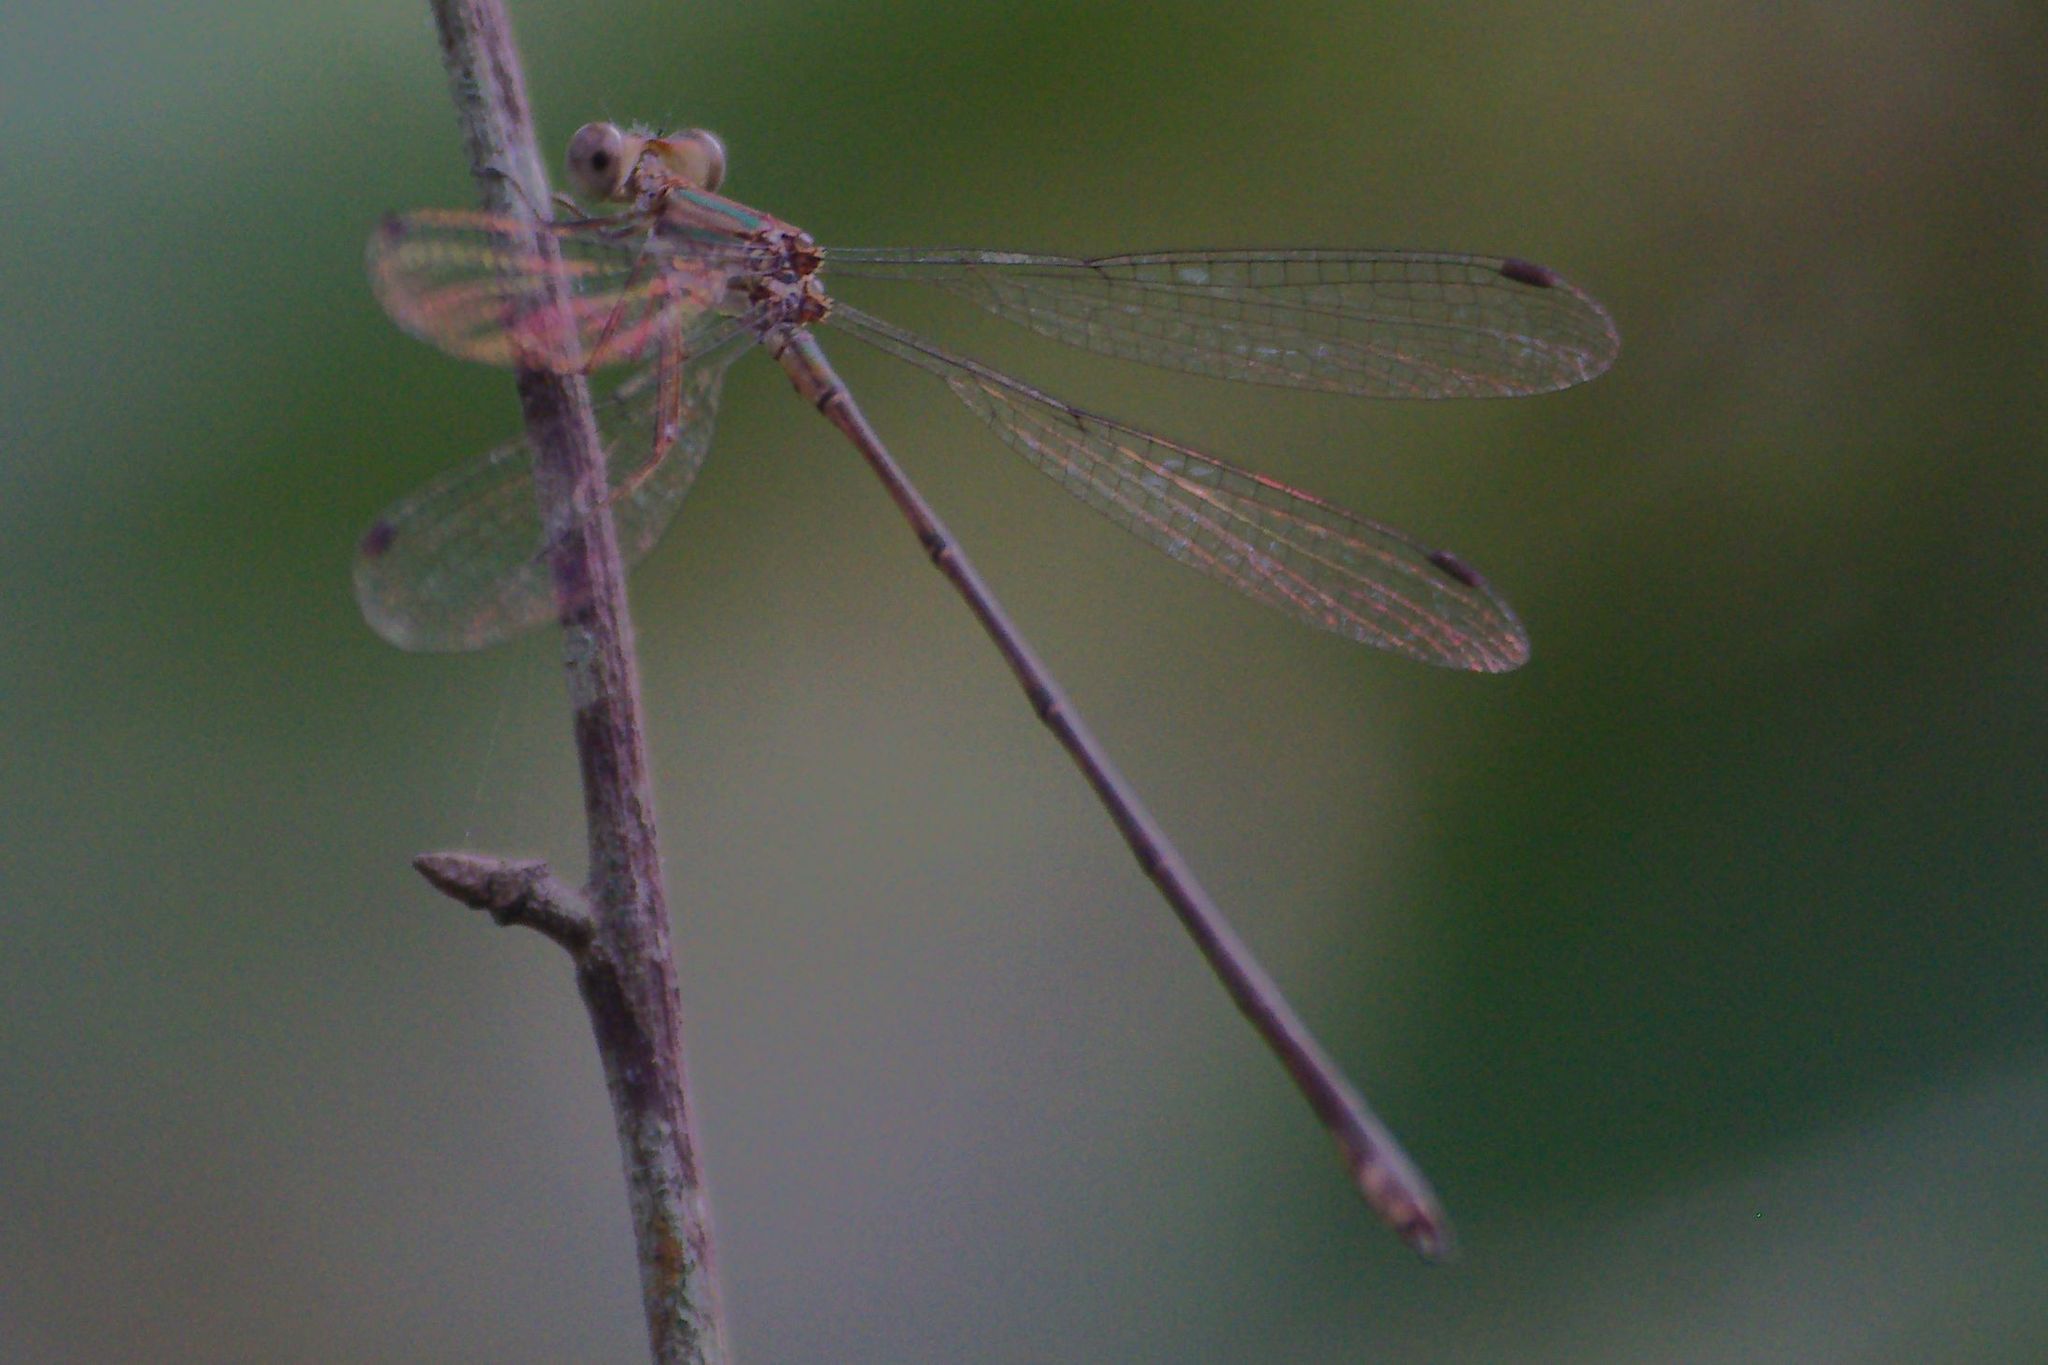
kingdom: Animalia
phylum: Arthropoda
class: Insecta
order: Odonata
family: Lestidae
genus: Lestes
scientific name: Lestes tenuatus
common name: Blue-striped spreadwing
